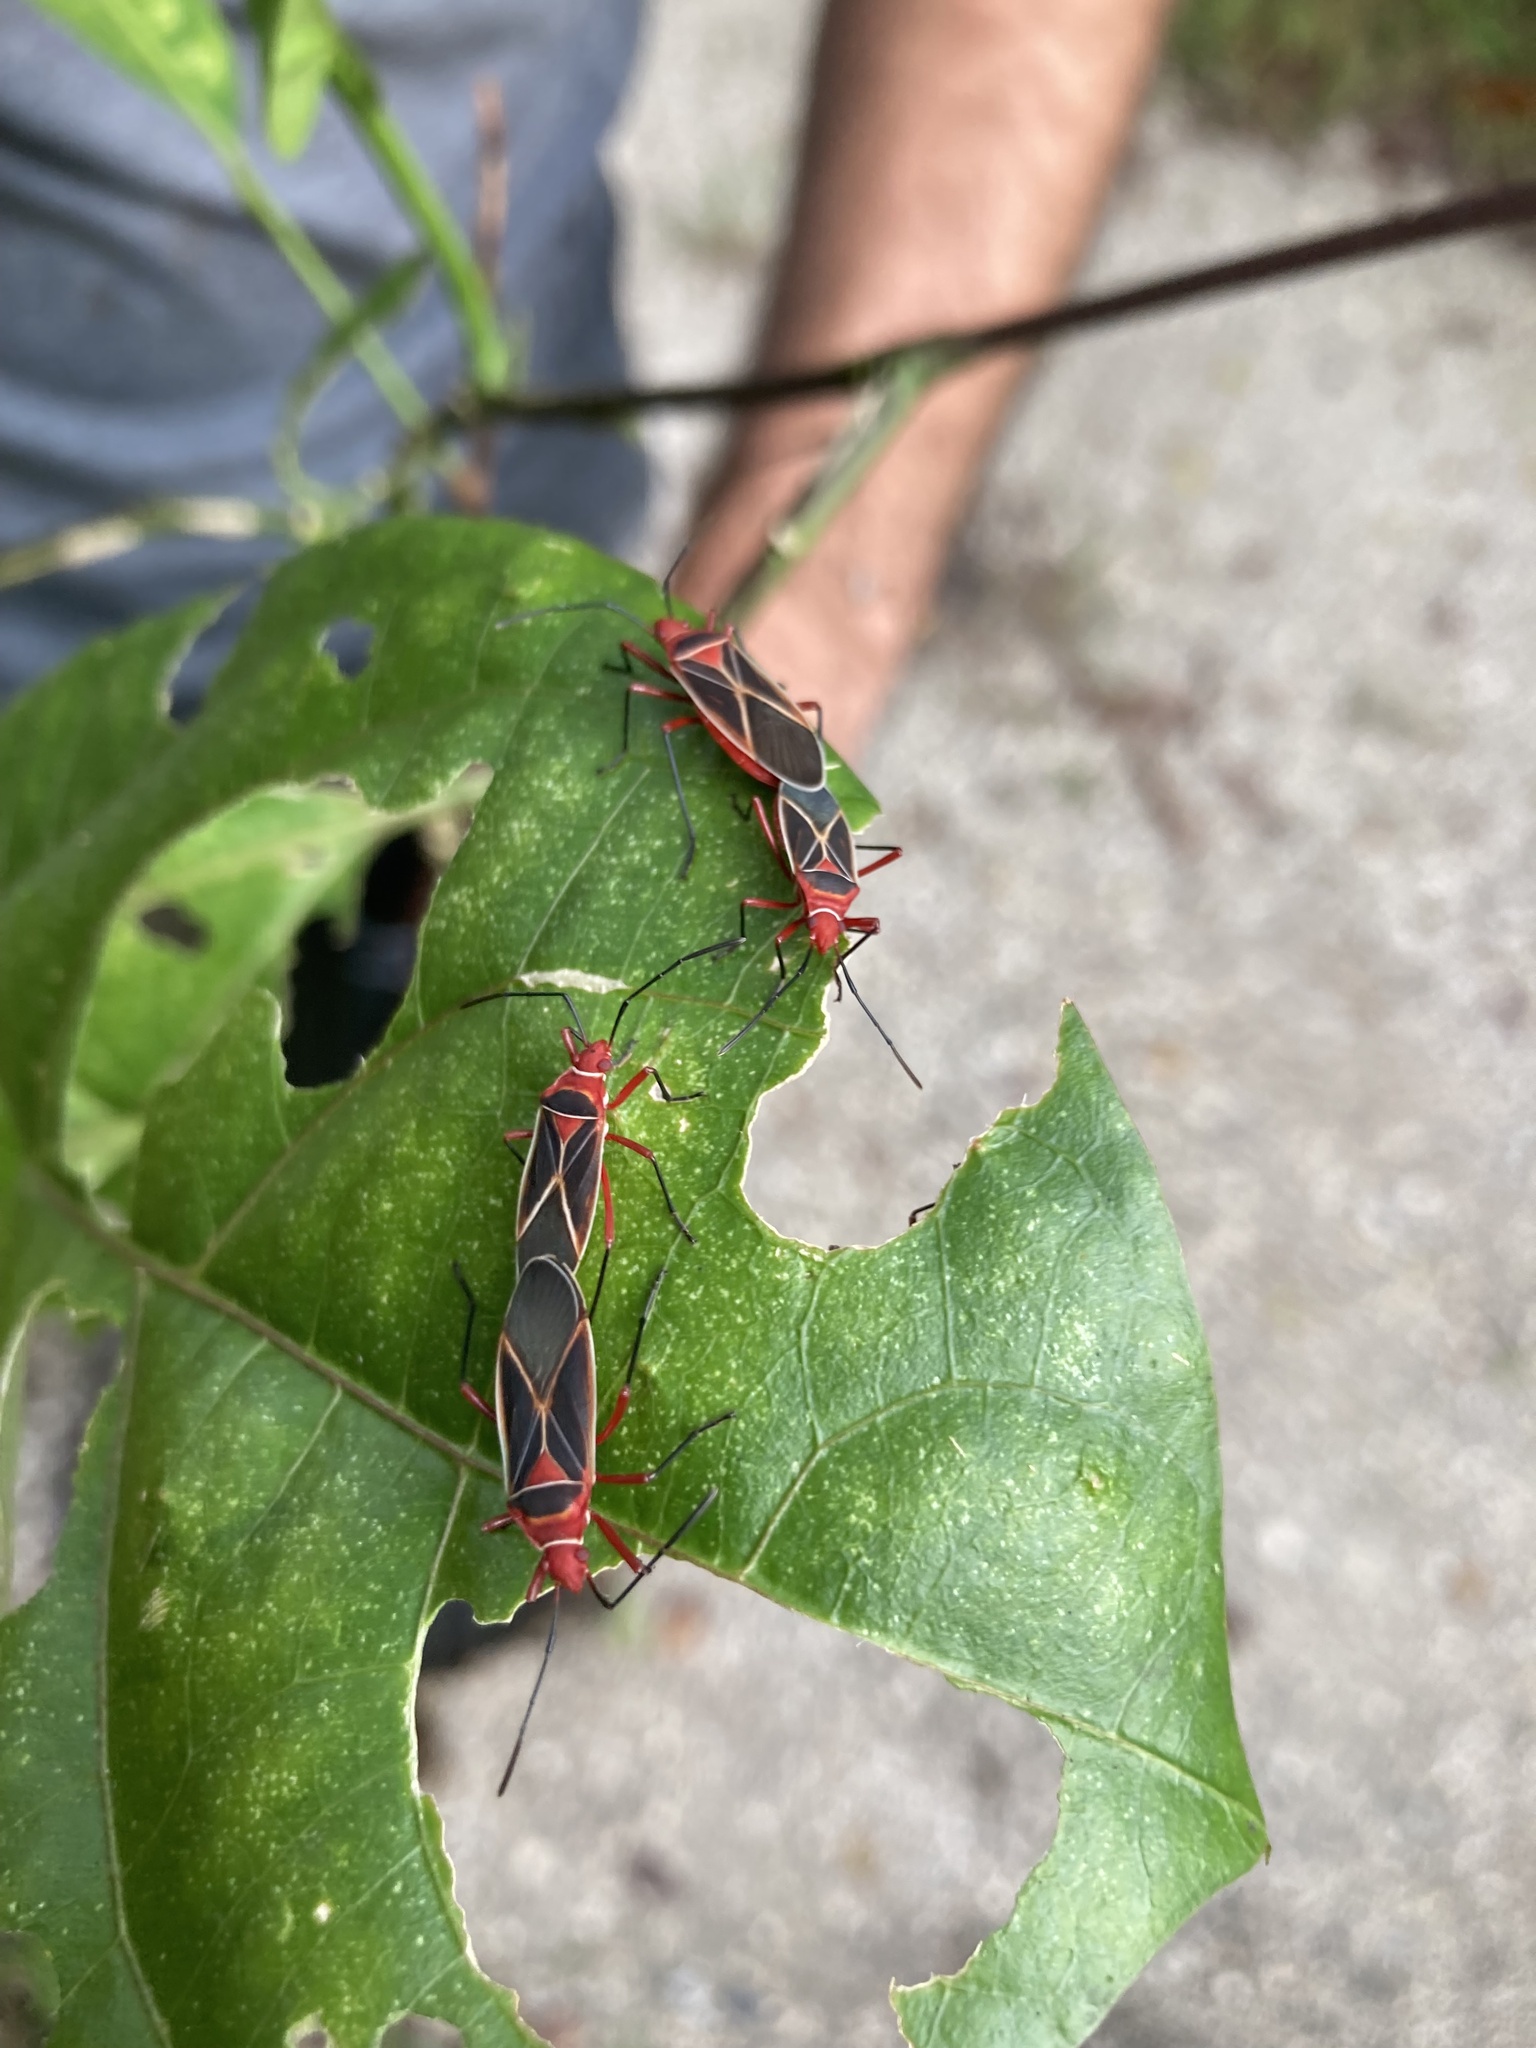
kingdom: Animalia
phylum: Arthropoda
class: Insecta
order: Hemiptera
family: Pyrrhocoridae
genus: Dysdercus
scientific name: Dysdercus suturellus
